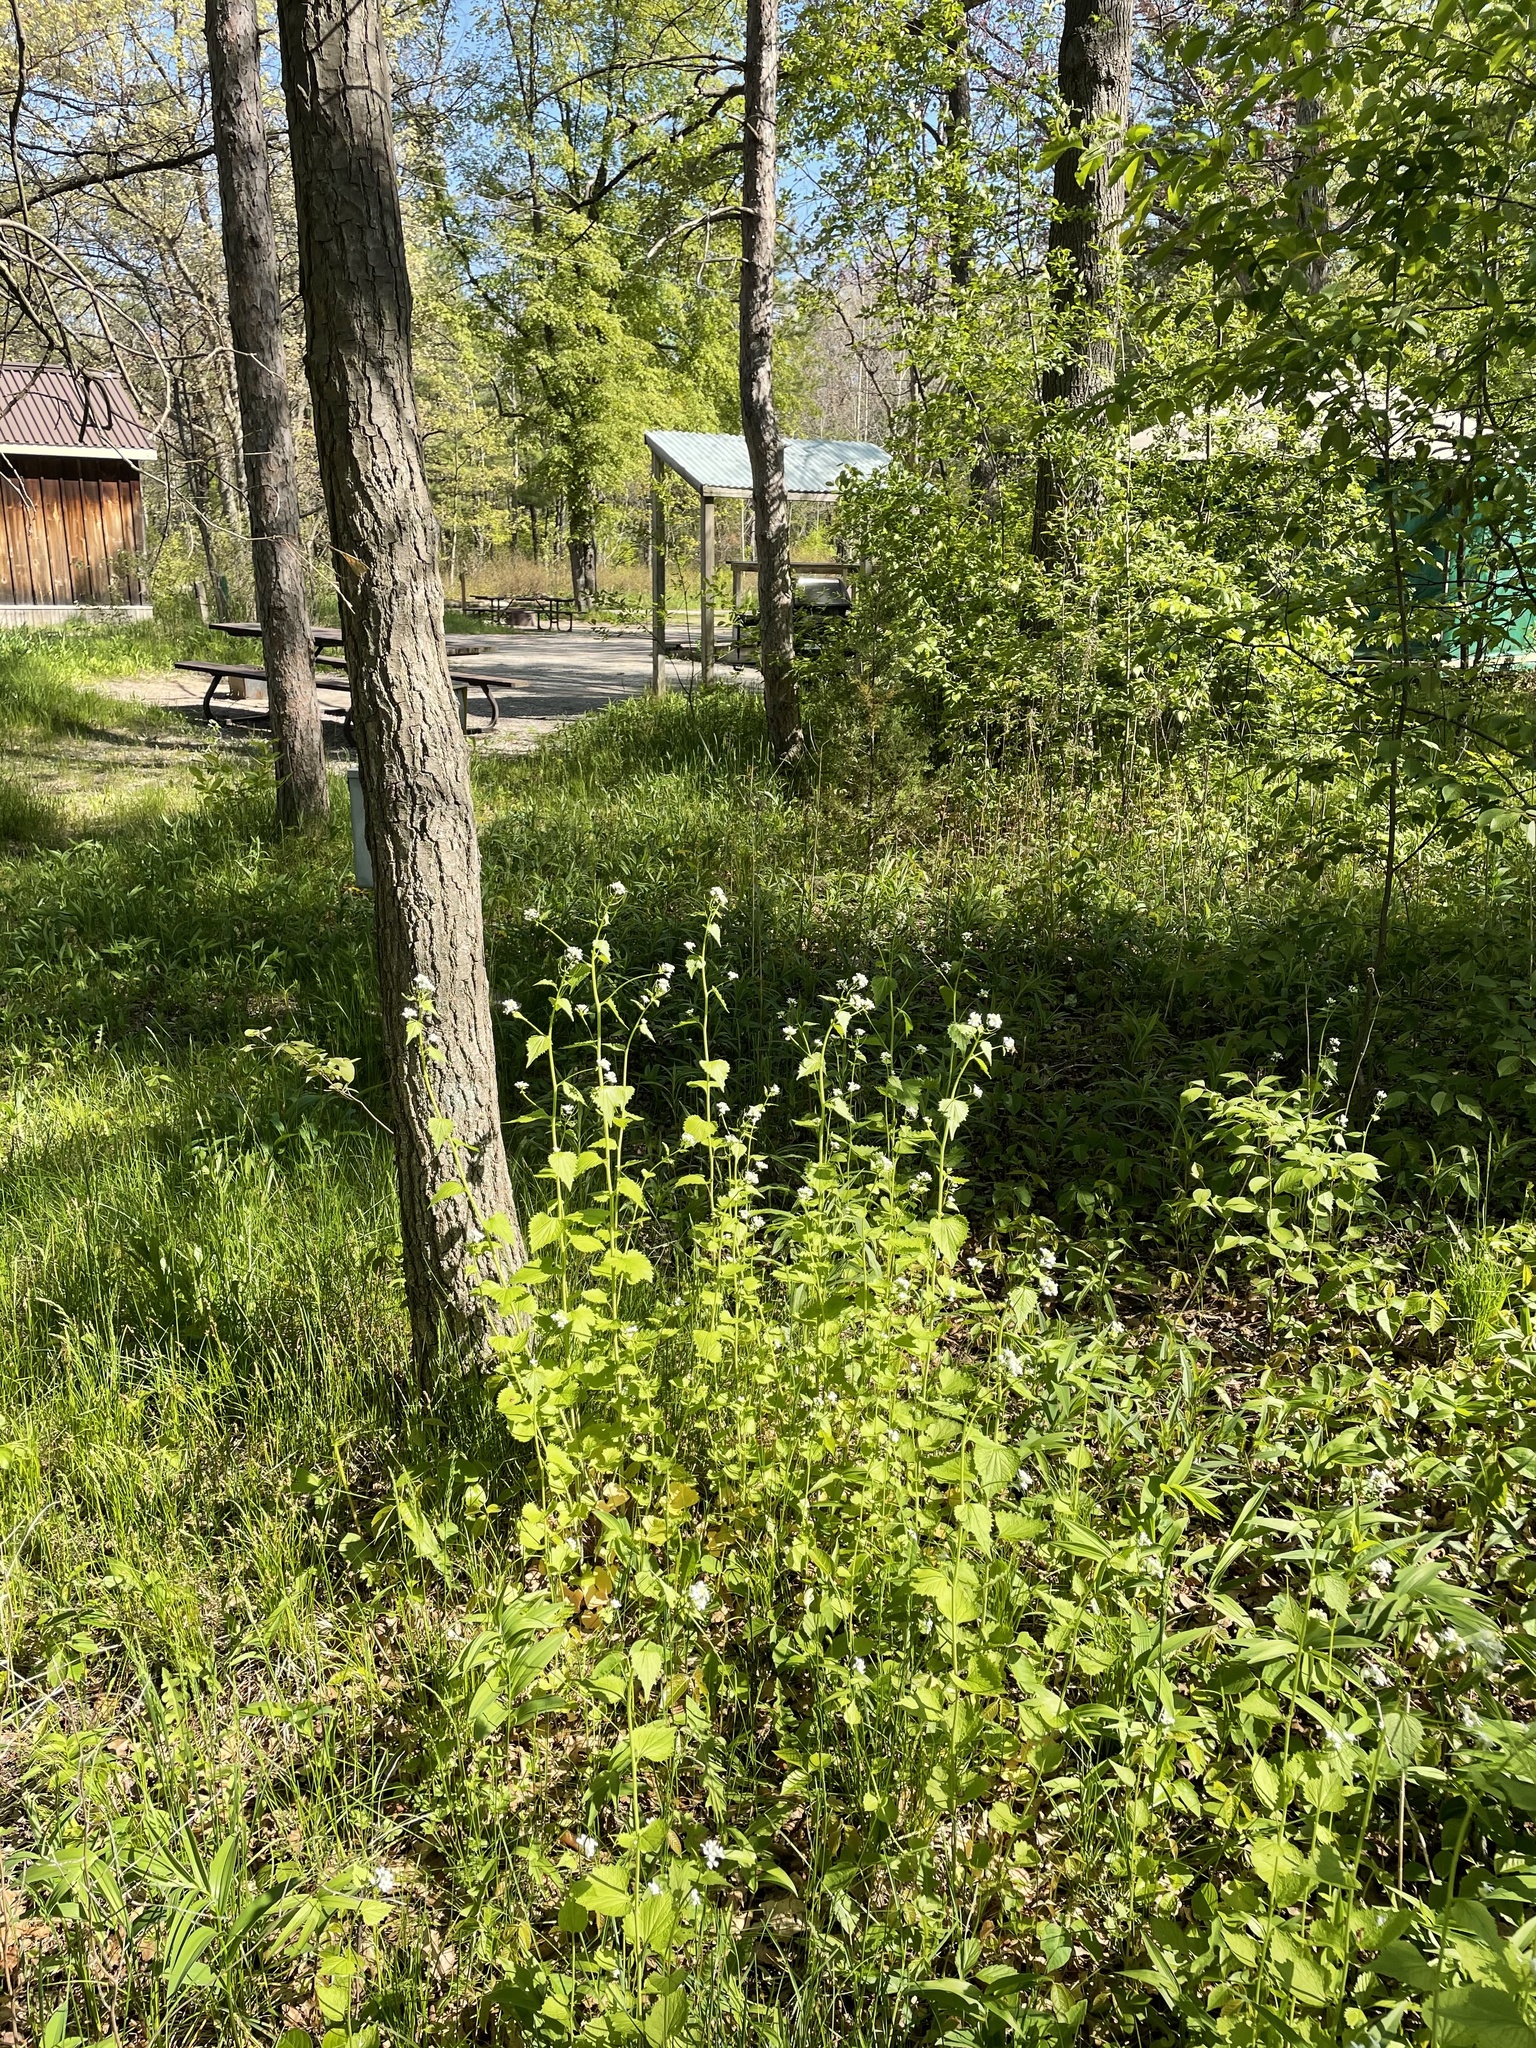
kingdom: Plantae
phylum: Tracheophyta
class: Magnoliopsida
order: Brassicales
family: Brassicaceae
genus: Alliaria
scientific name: Alliaria petiolata
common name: Garlic mustard
